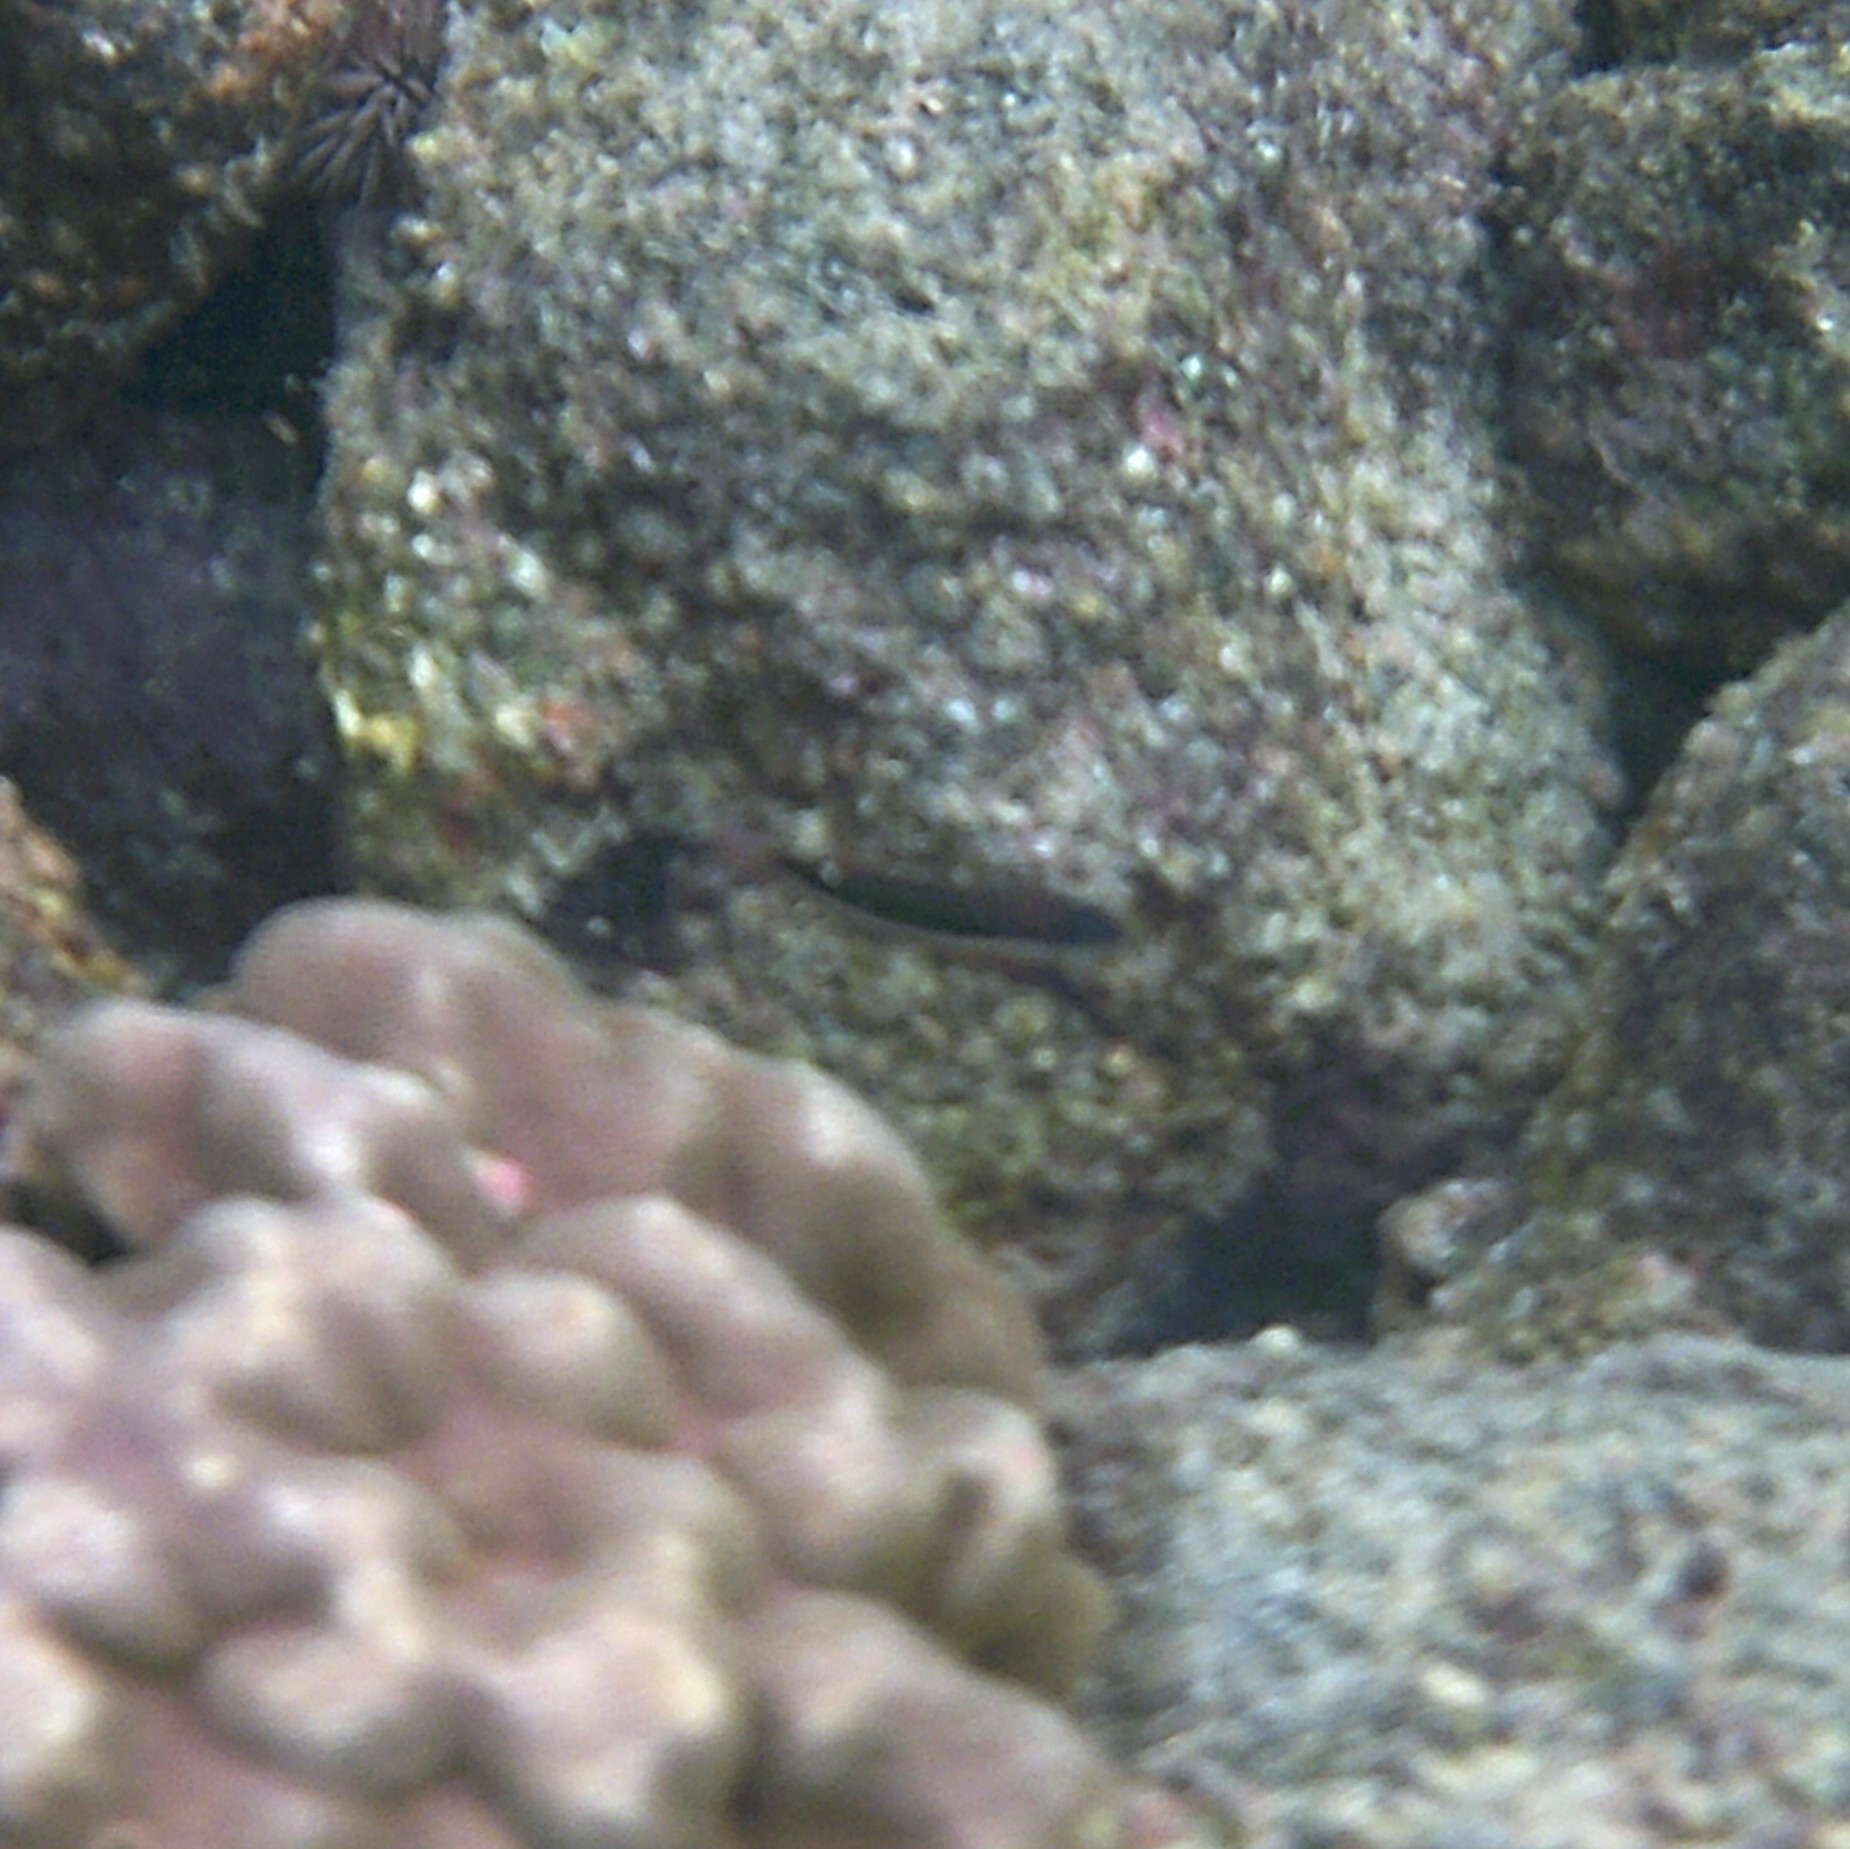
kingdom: Animalia
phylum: Chordata
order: Perciformes
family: Labridae
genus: Thalassoma
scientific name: Thalassoma duperrey
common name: Saddle wrasse
